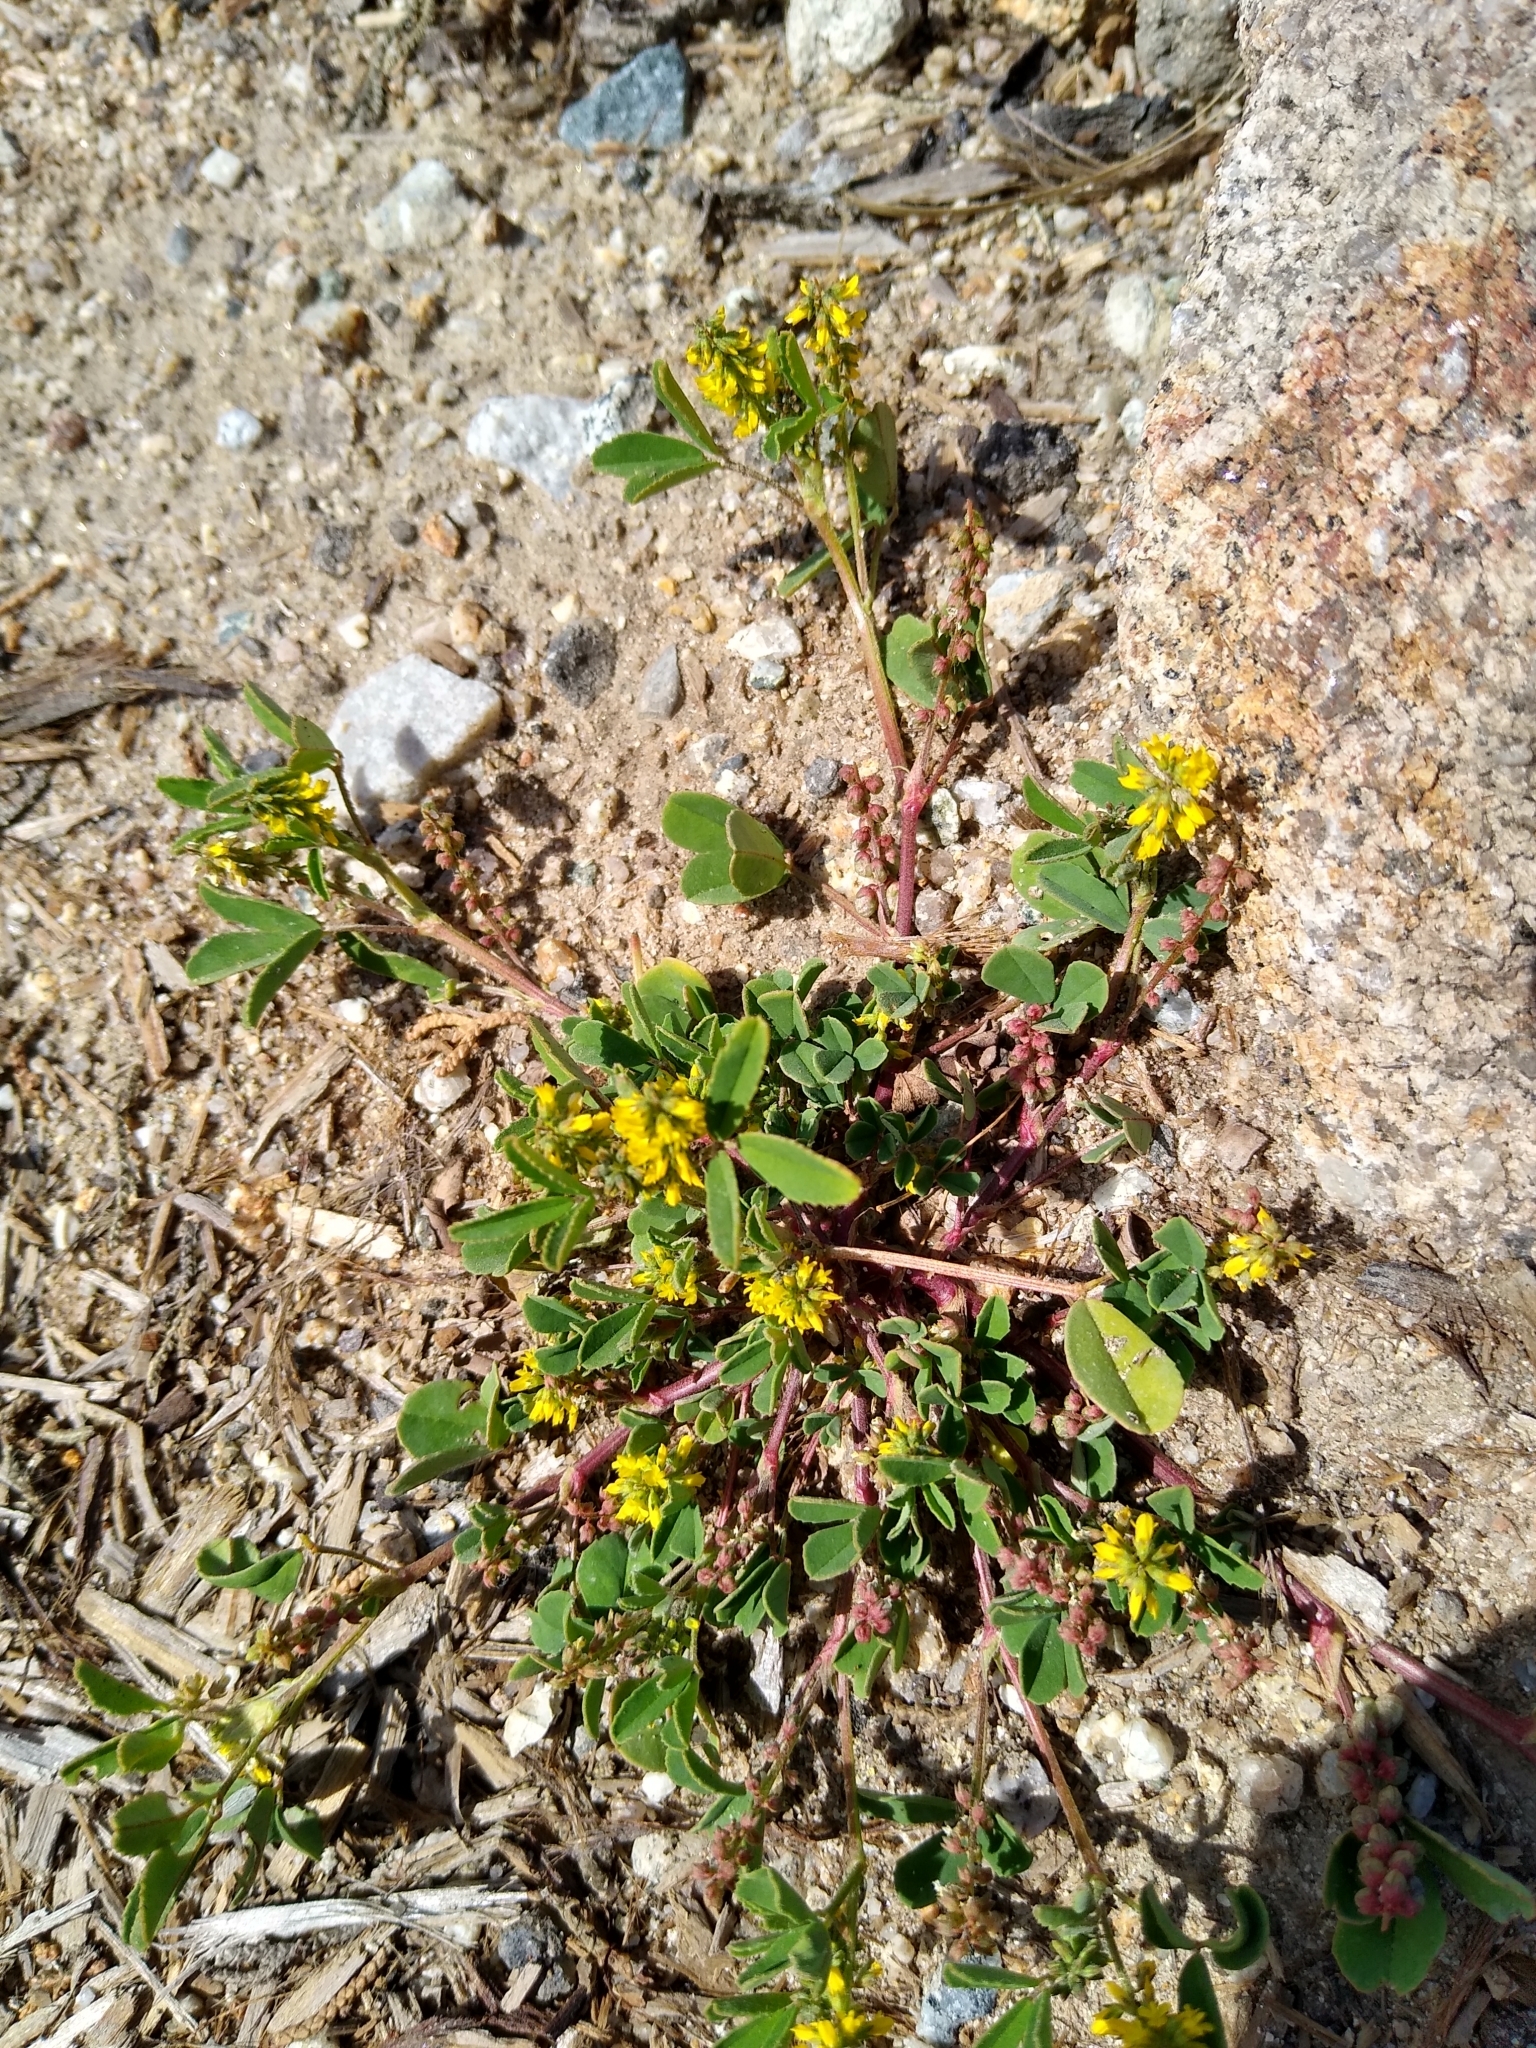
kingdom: Plantae
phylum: Tracheophyta
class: Magnoliopsida
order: Fabales
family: Fabaceae
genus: Melilotus
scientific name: Melilotus indicus
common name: Small melilot
